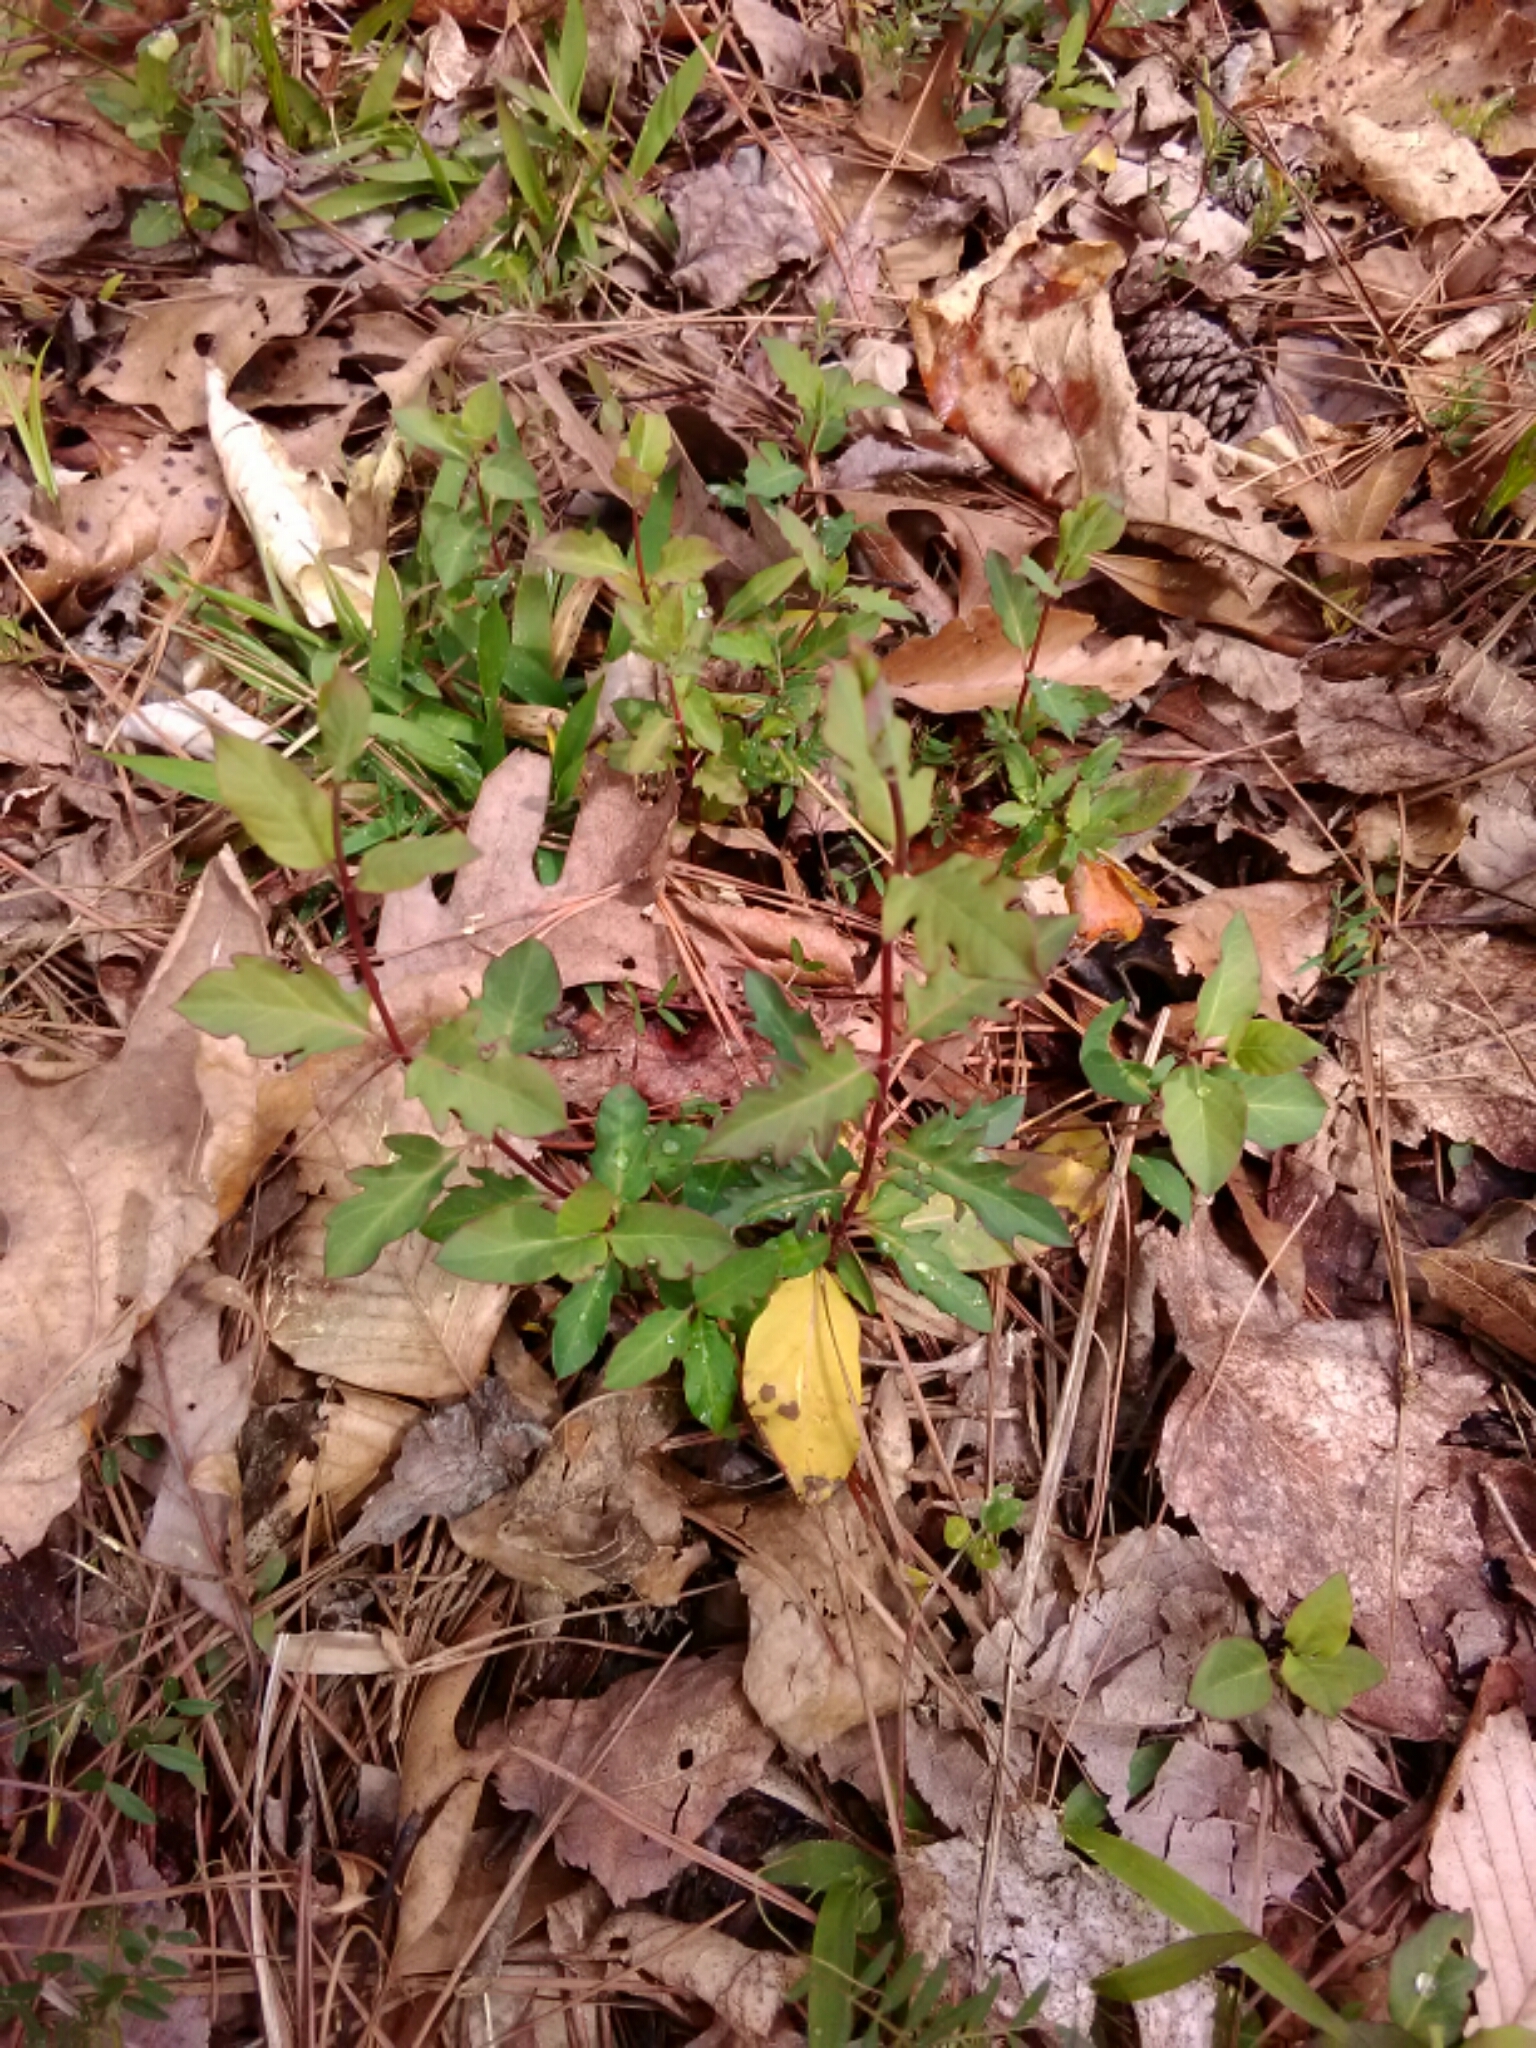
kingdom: Plantae
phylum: Tracheophyta
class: Magnoliopsida
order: Dipsacales
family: Caprifoliaceae
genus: Lonicera
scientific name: Lonicera japonica
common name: Japanese honeysuckle
